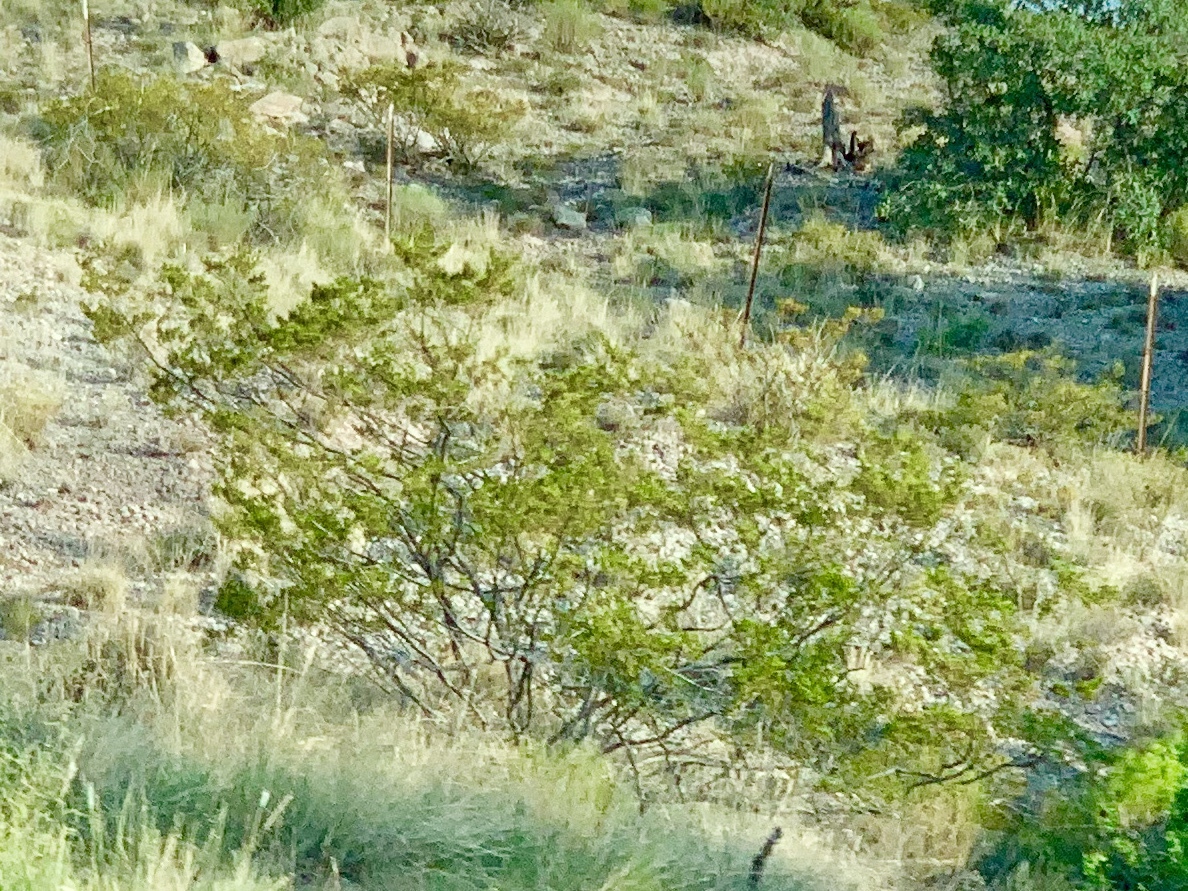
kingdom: Plantae
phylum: Tracheophyta
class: Magnoliopsida
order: Zygophyllales
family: Zygophyllaceae
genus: Larrea
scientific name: Larrea tridentata
